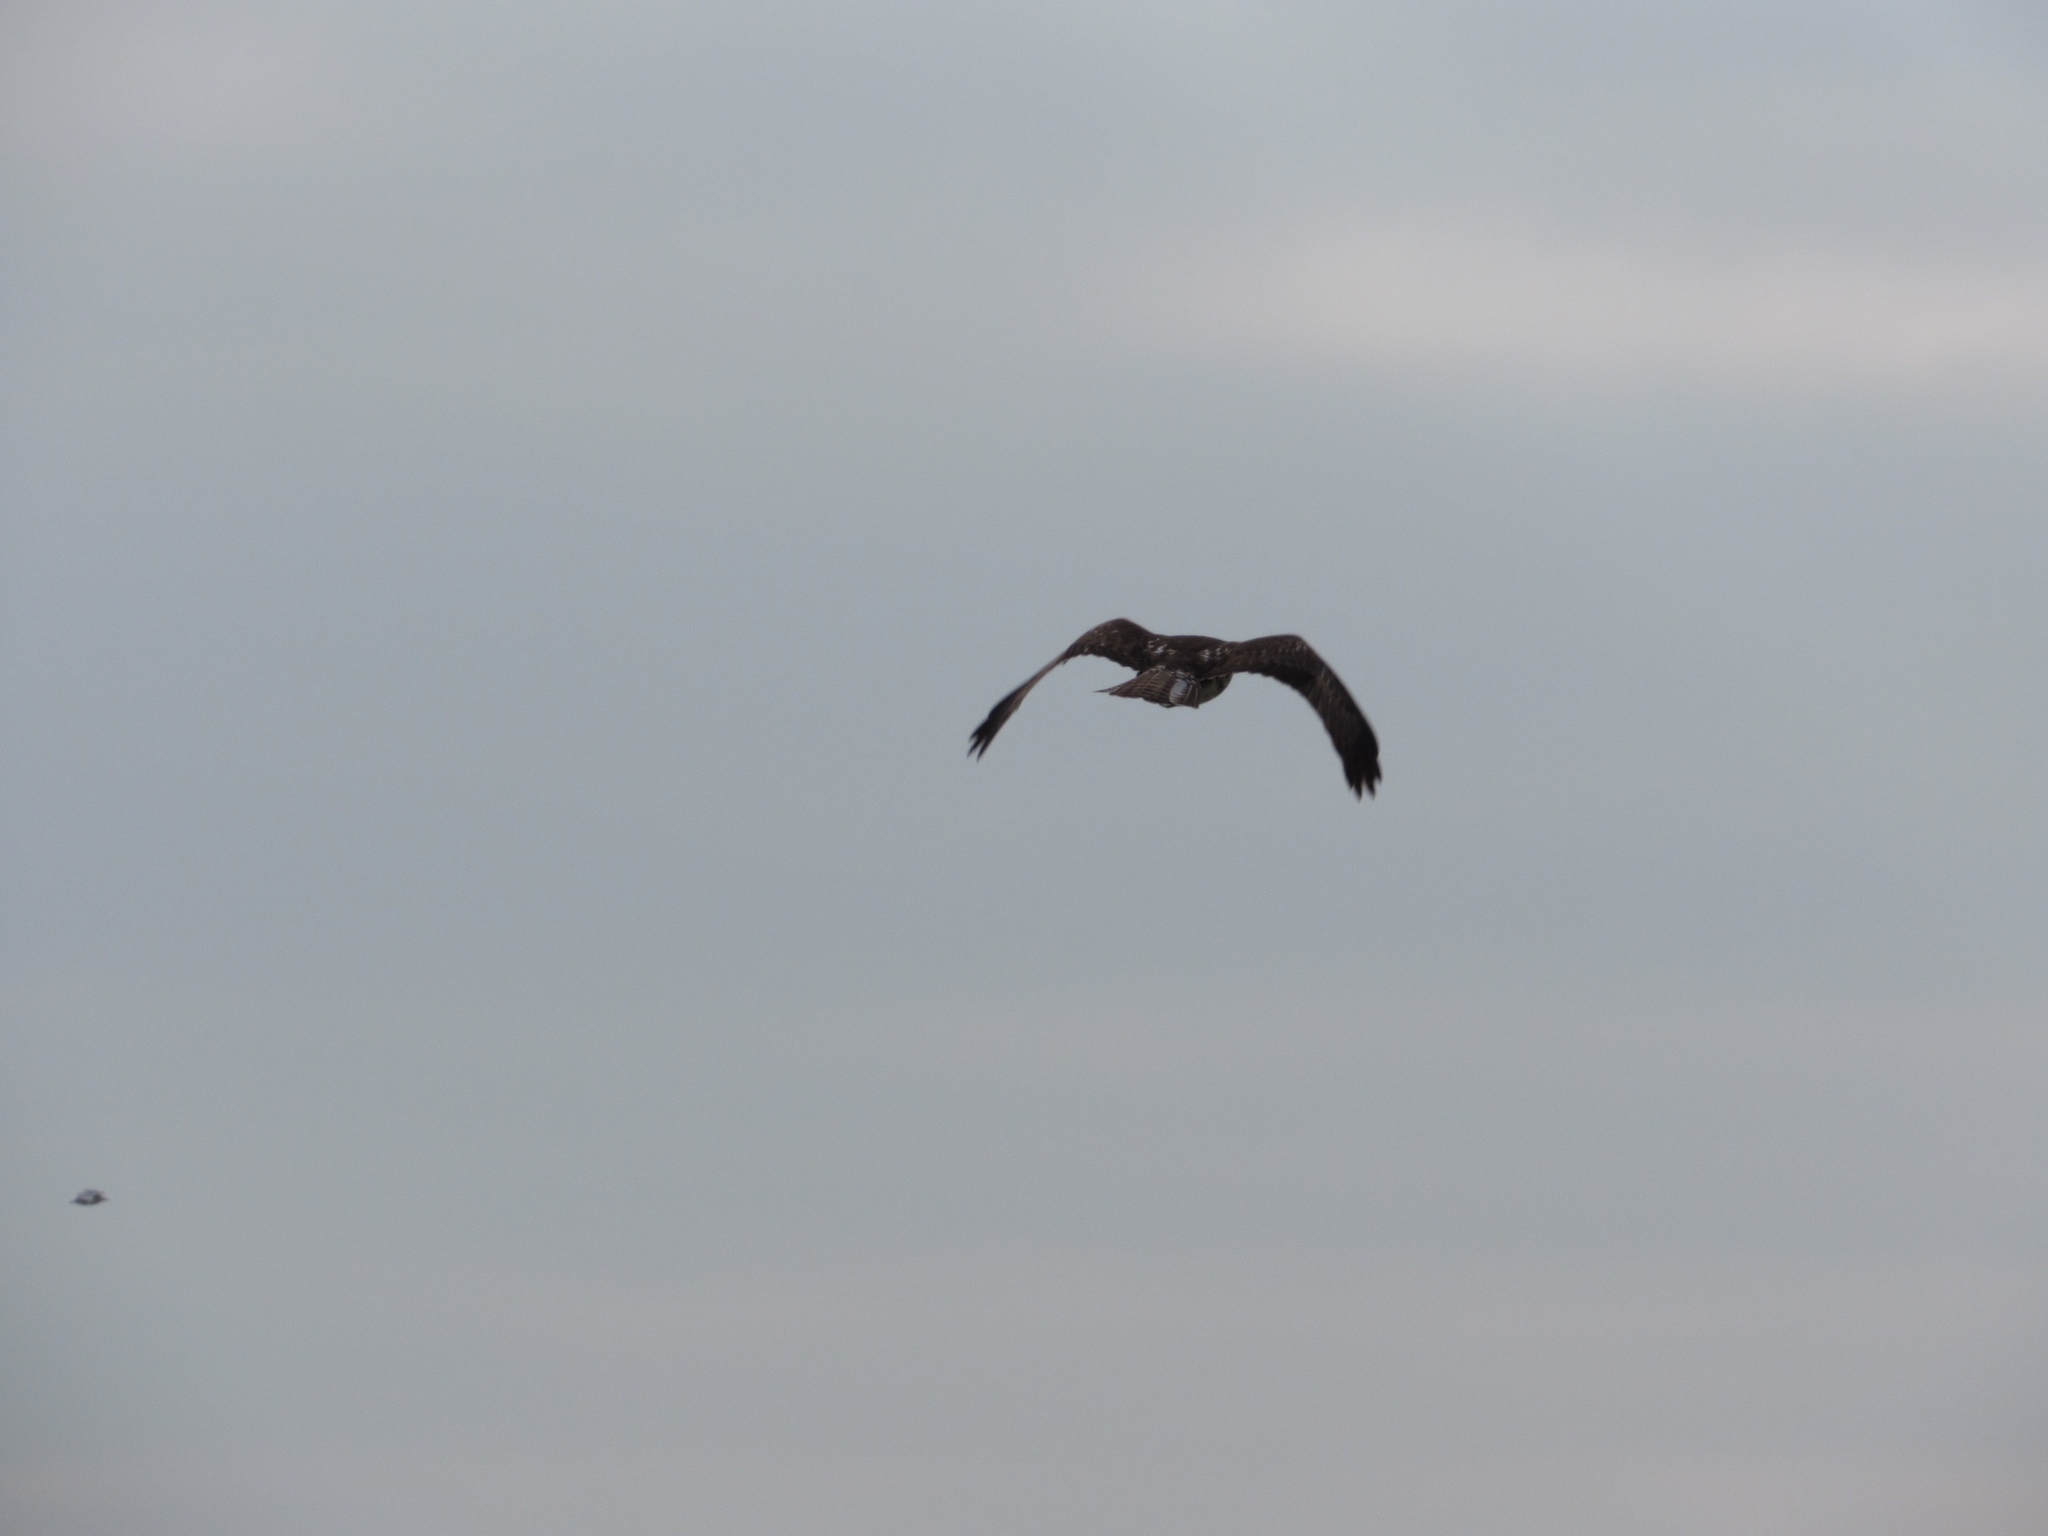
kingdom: Animalia
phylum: Chordata
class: Aves
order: Accipitriformes
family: Accipitridae
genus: Buteo
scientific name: Buteo jamaicensis
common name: Red-tailed hawk
